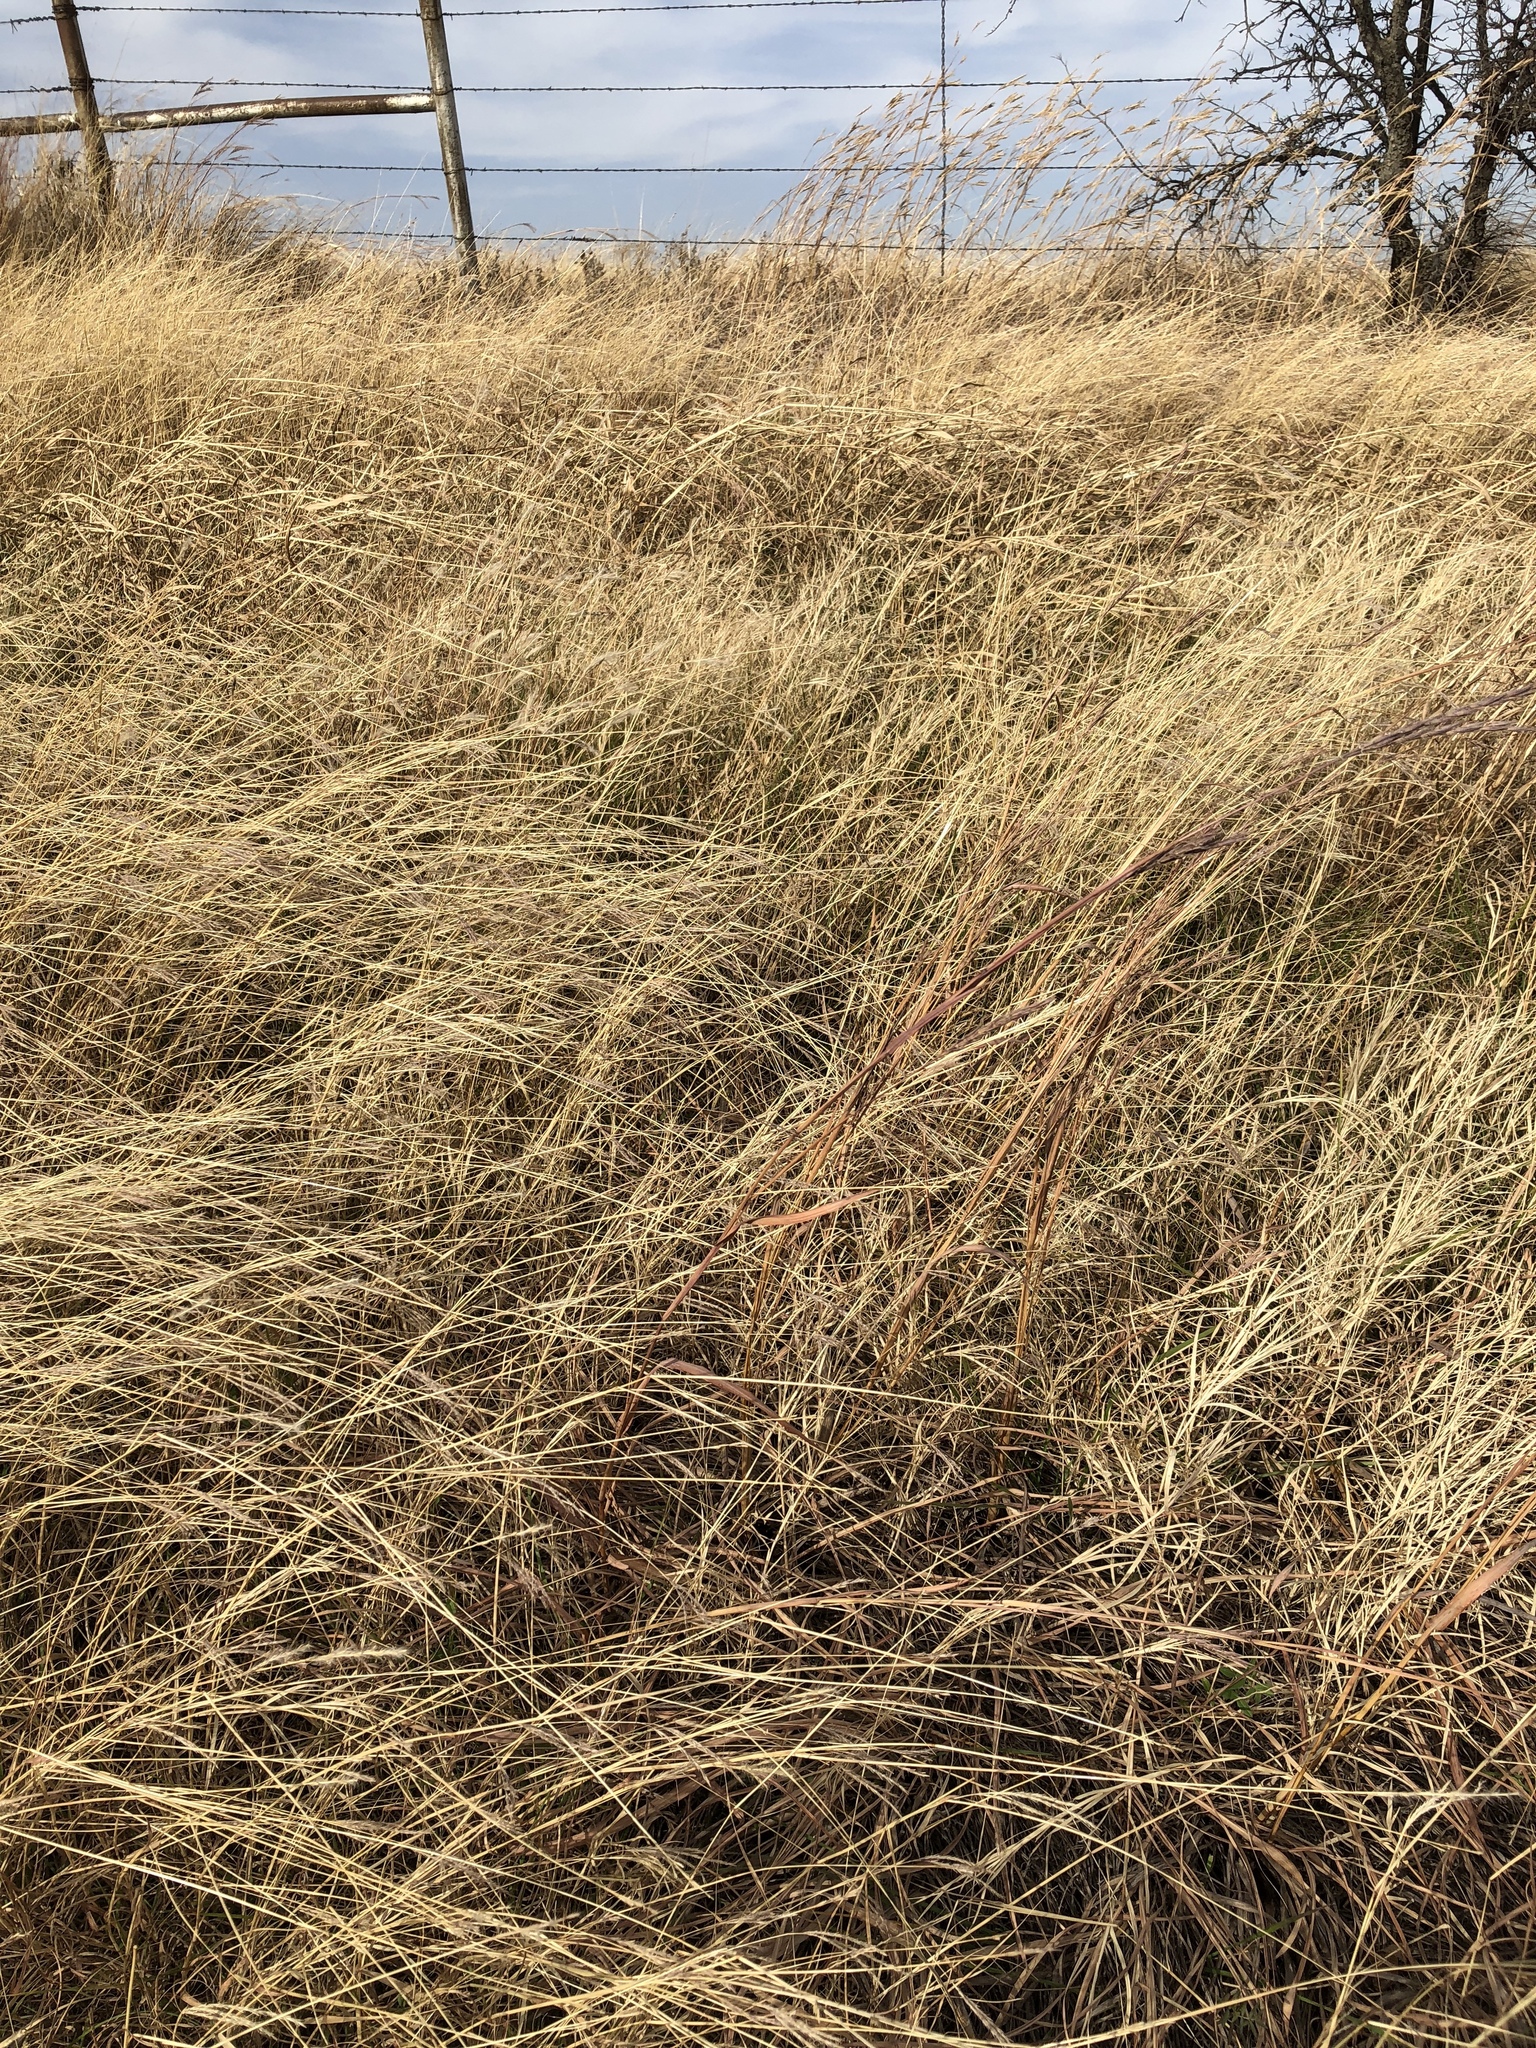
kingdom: Plantae
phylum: Tracheophyta
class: Liliopsida
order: Poales
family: Poaceae
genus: Andropogon
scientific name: Andropogon gerardi
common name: Big bluestem
